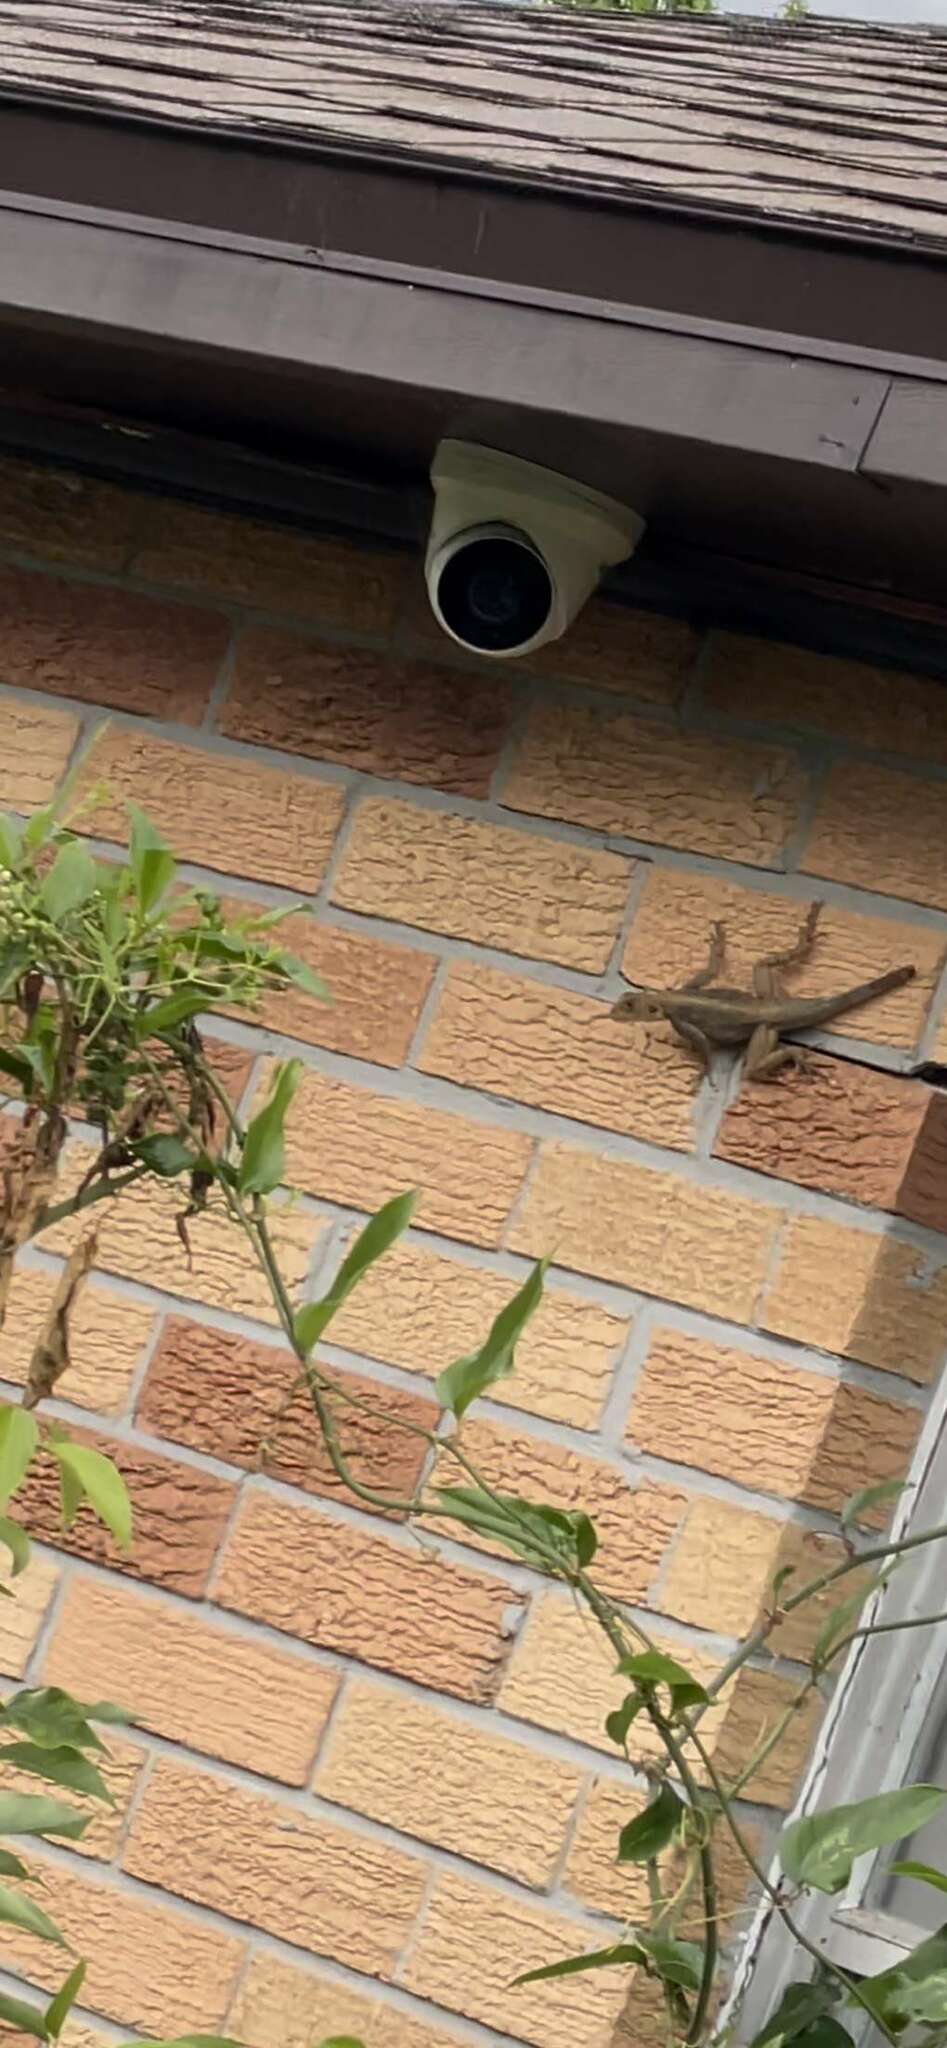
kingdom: Animalia
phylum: Chordata
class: Squamata
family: Agamidae
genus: Agama
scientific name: Agama picticauda
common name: Red-headed agama
